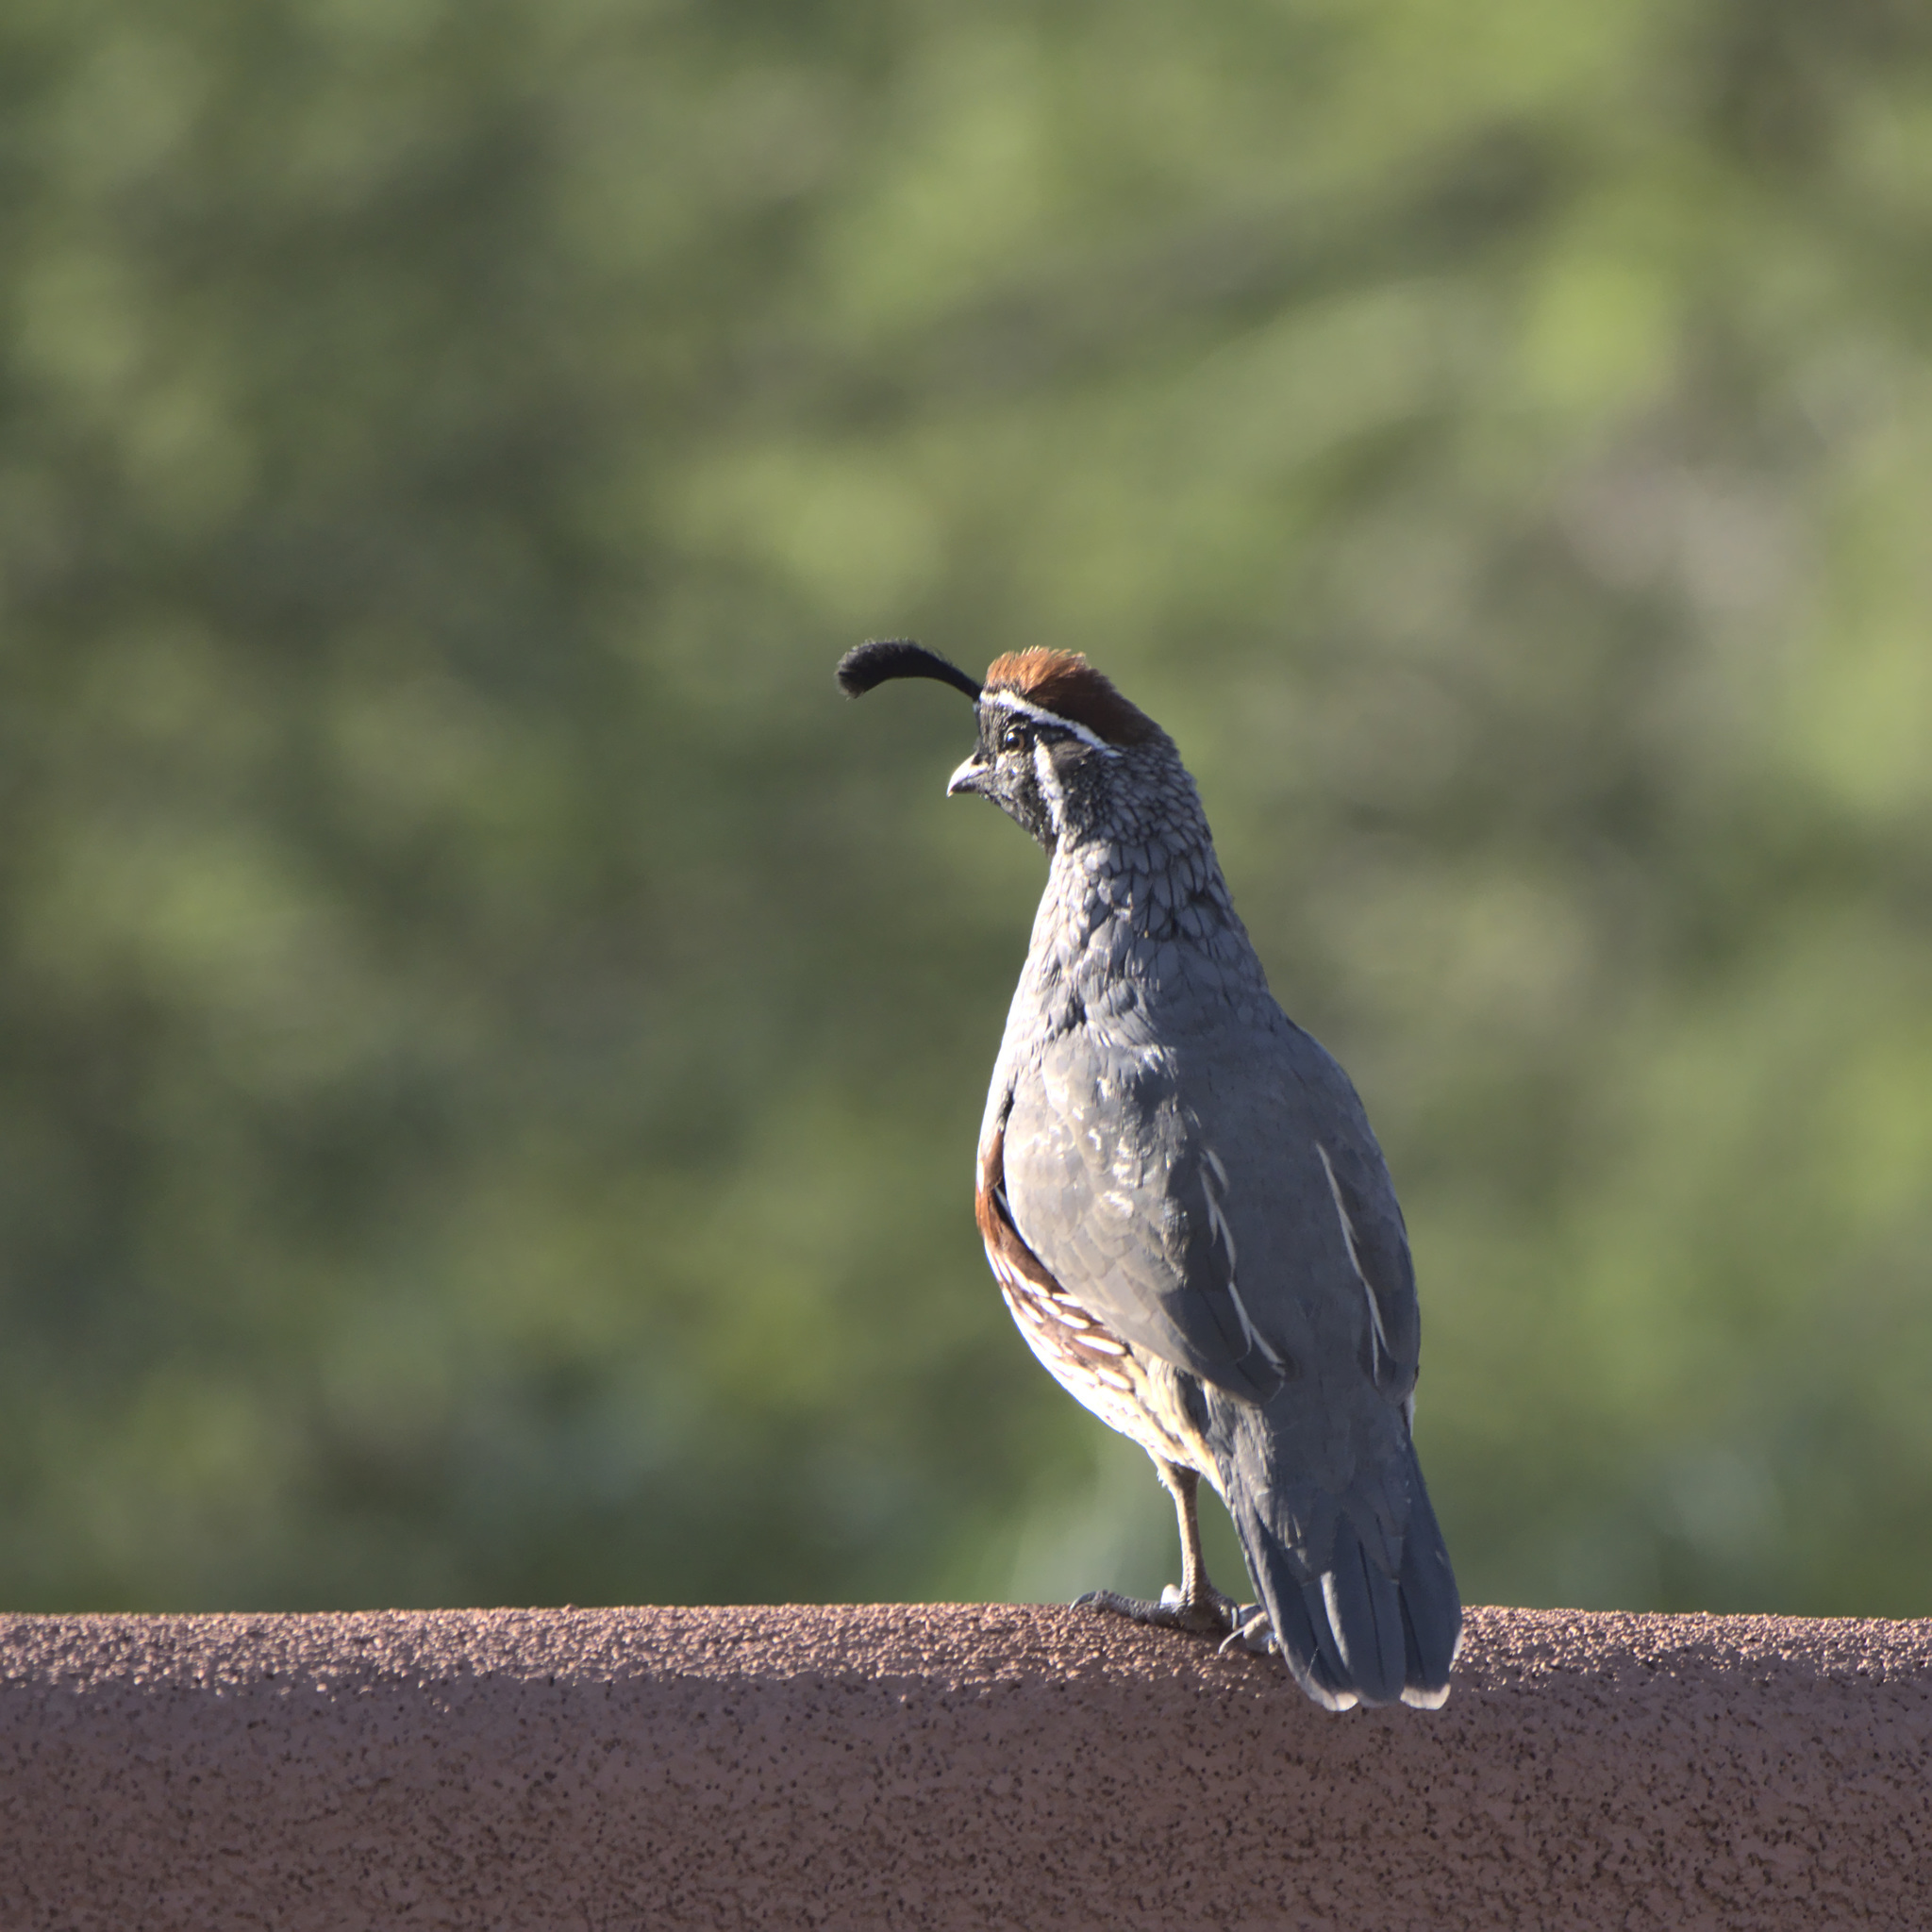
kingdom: Animalia
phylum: Chordata
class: Aves
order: Galliformes
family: Odontophoridae
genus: Callipepla
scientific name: Callipepla gambelii
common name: Gambel's quail
